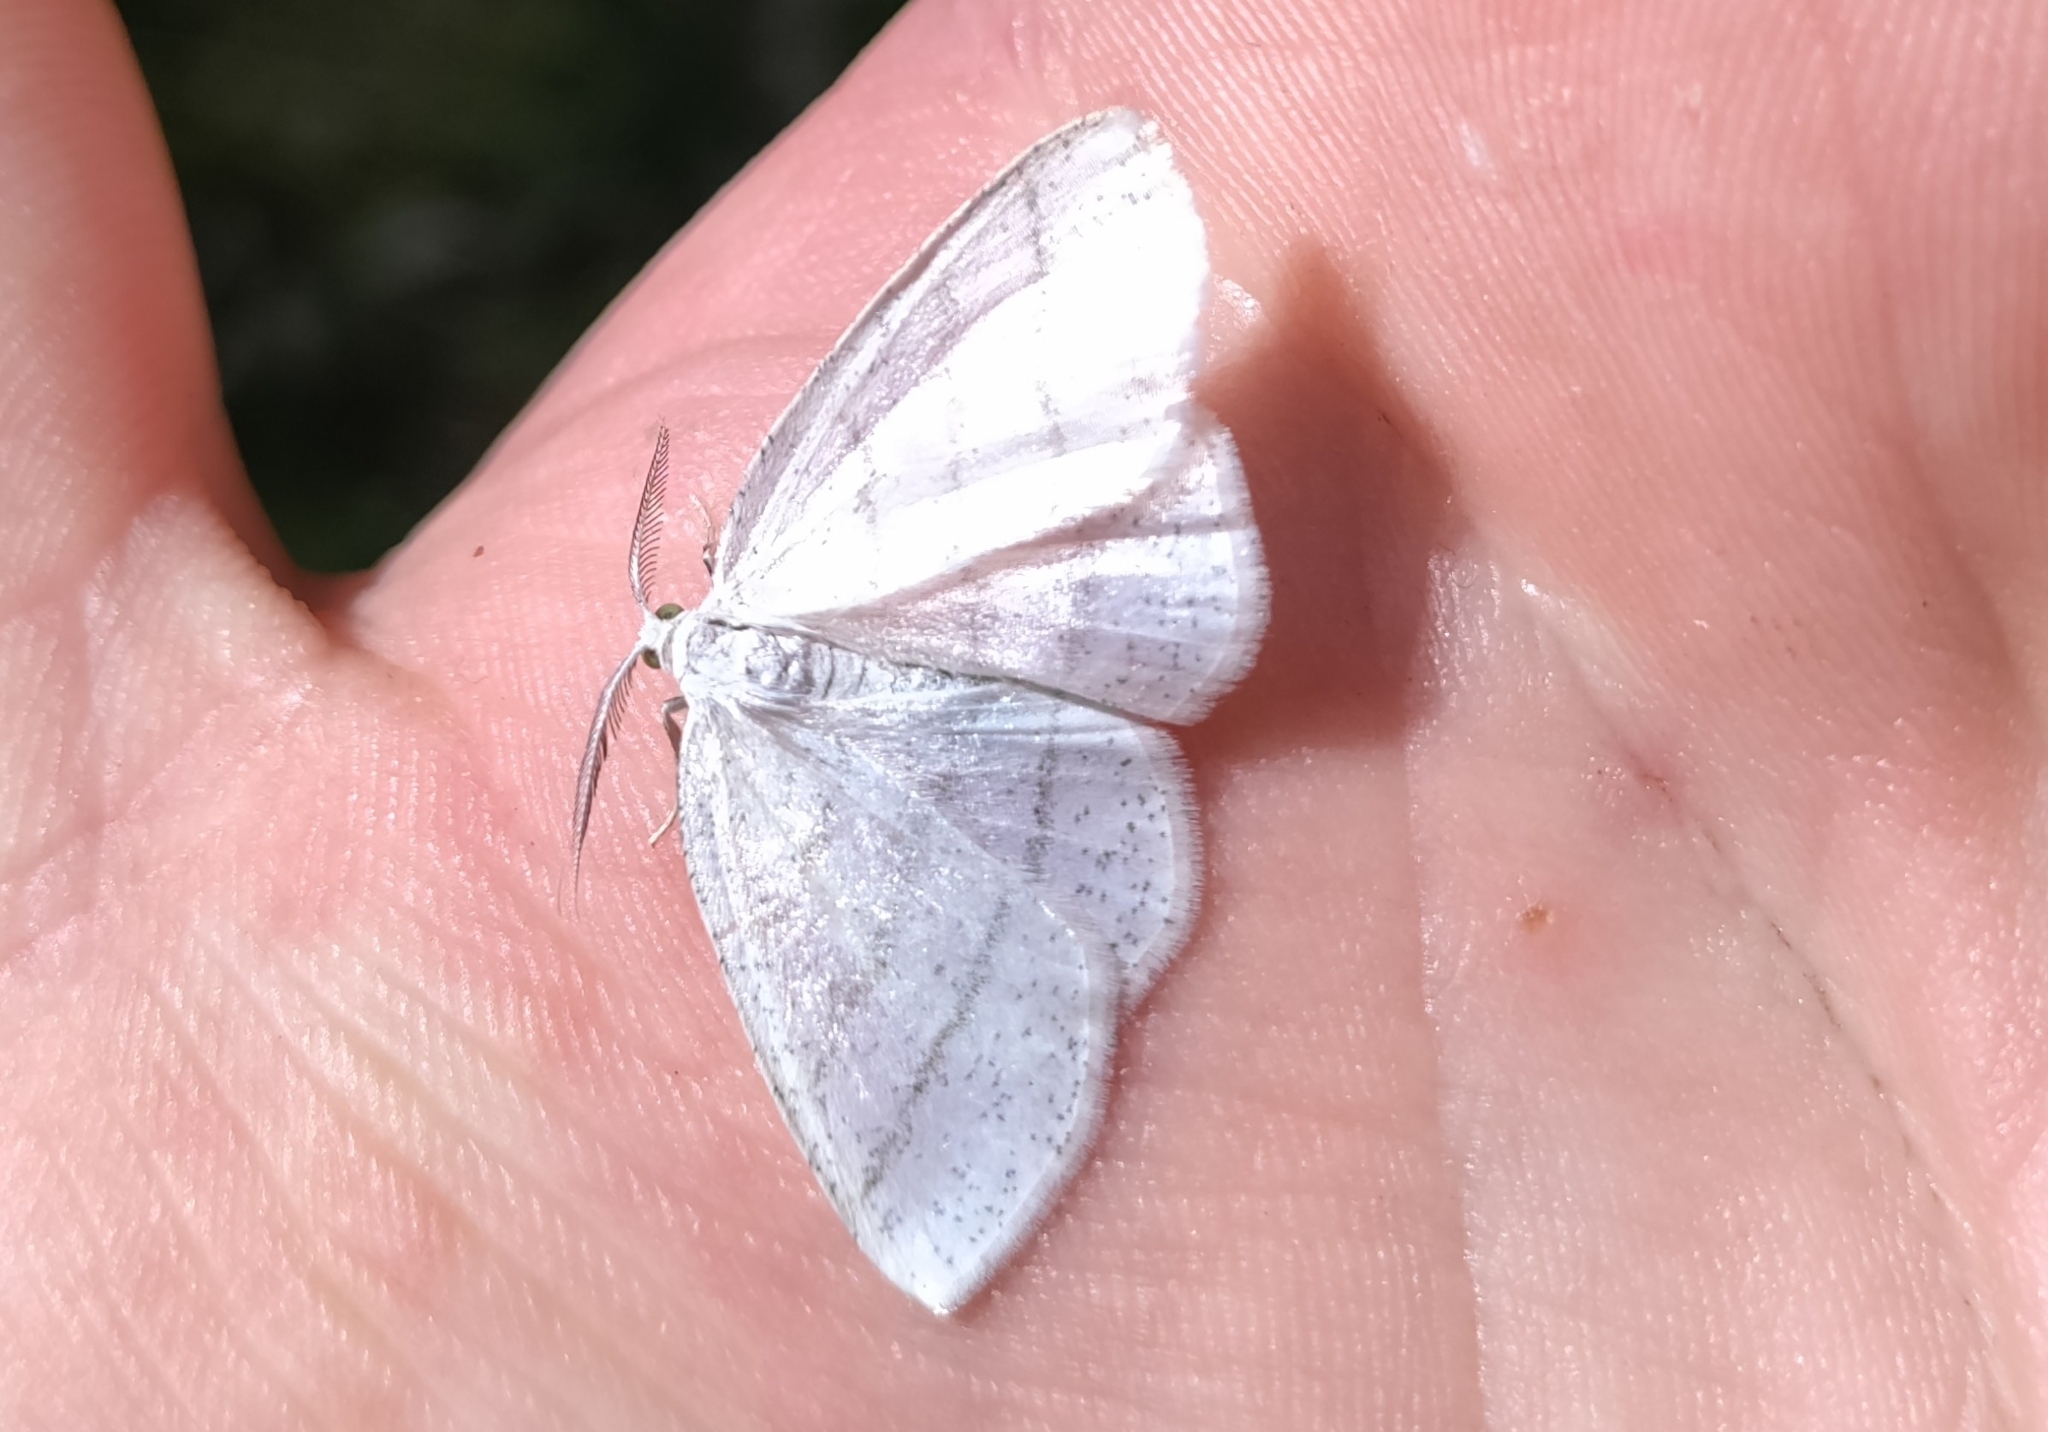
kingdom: Animalia
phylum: Arthropoda
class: Insecta
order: Lepidoptera
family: Geometridae
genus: Cabera
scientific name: Cabera pusaria
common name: Common white wave
